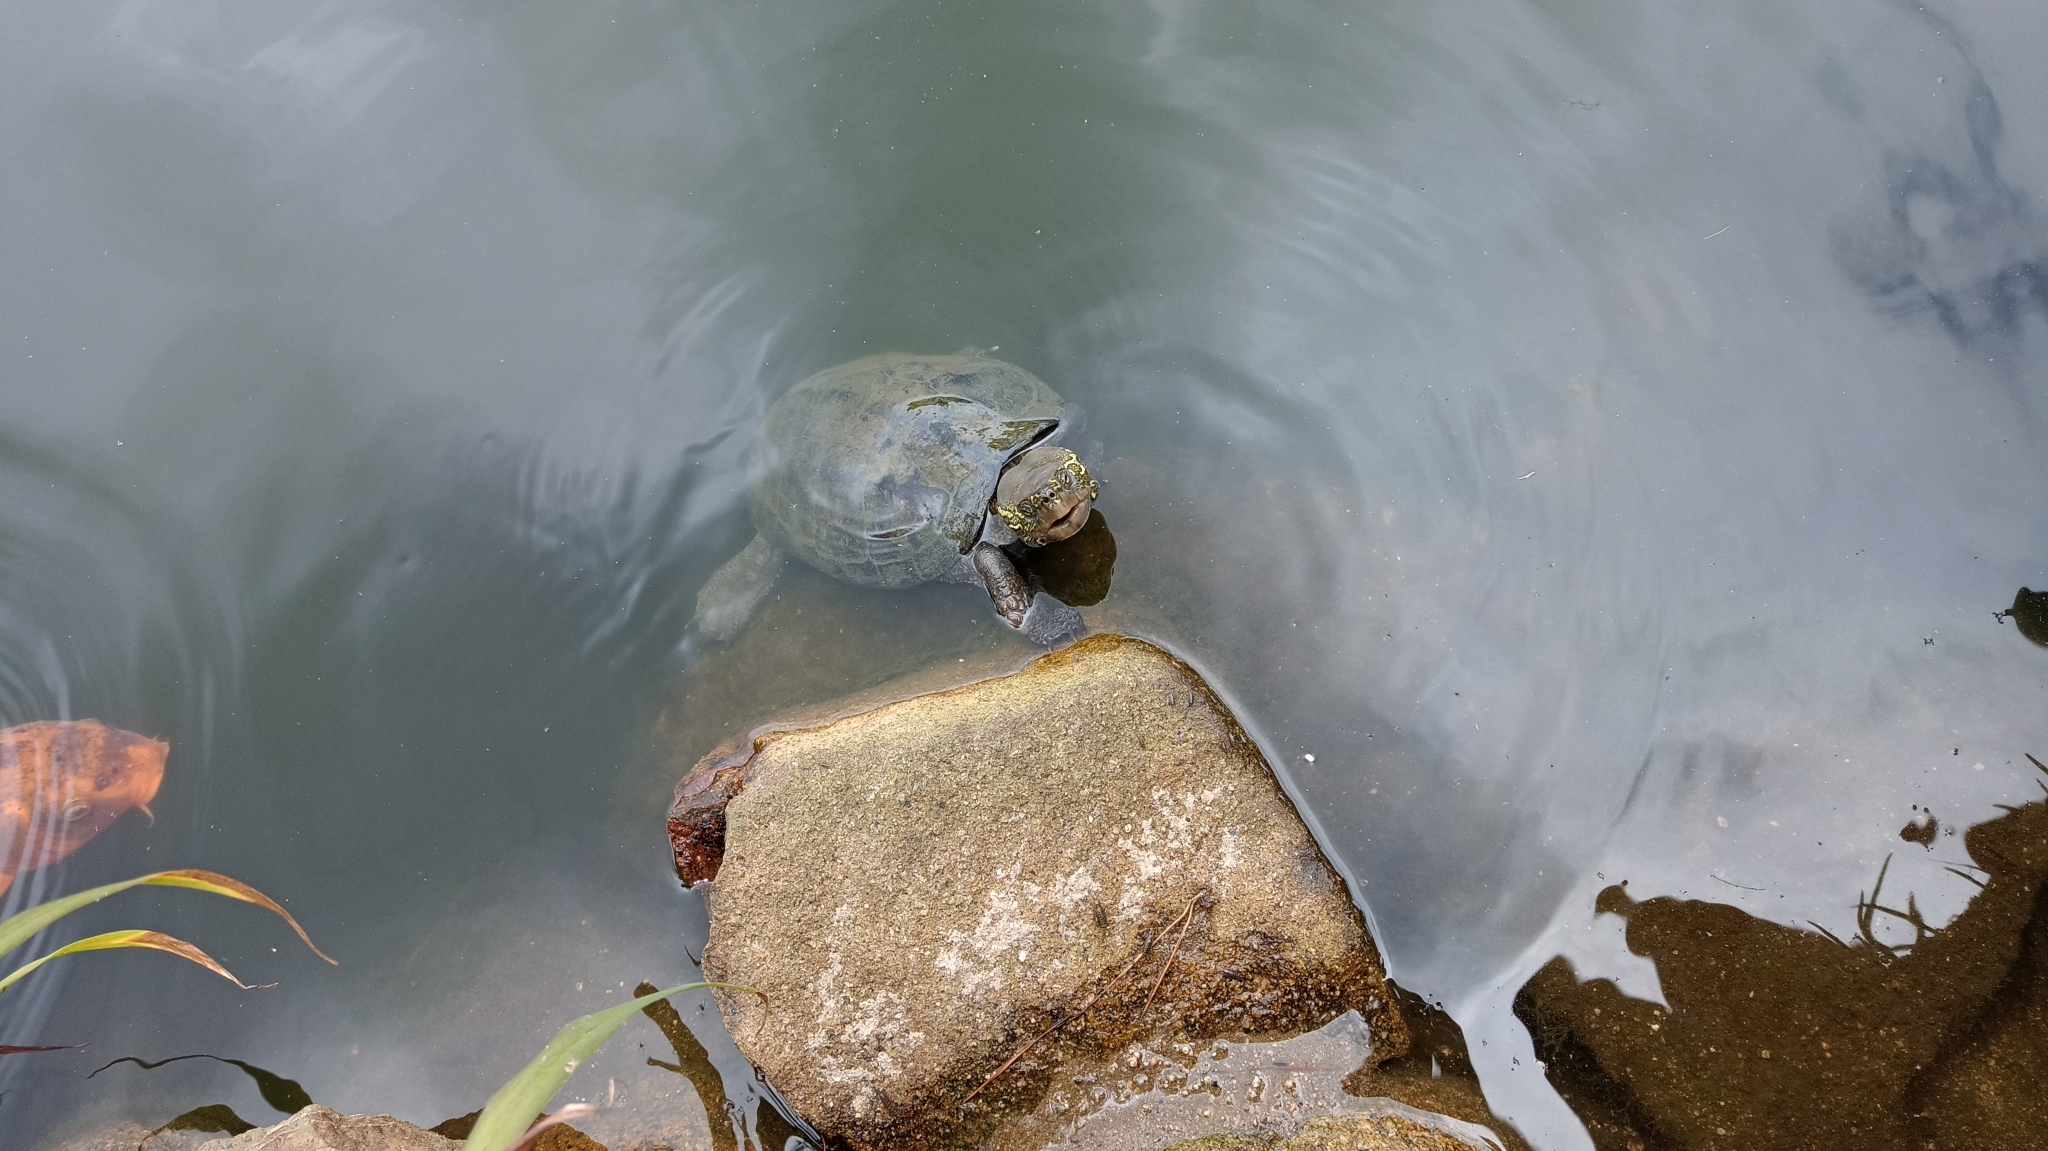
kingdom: Animalia
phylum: Chordata
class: Testudines
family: Geoemydidae
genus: Mauremys
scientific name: Mauremys reevesii
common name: Chinese pond turtle
